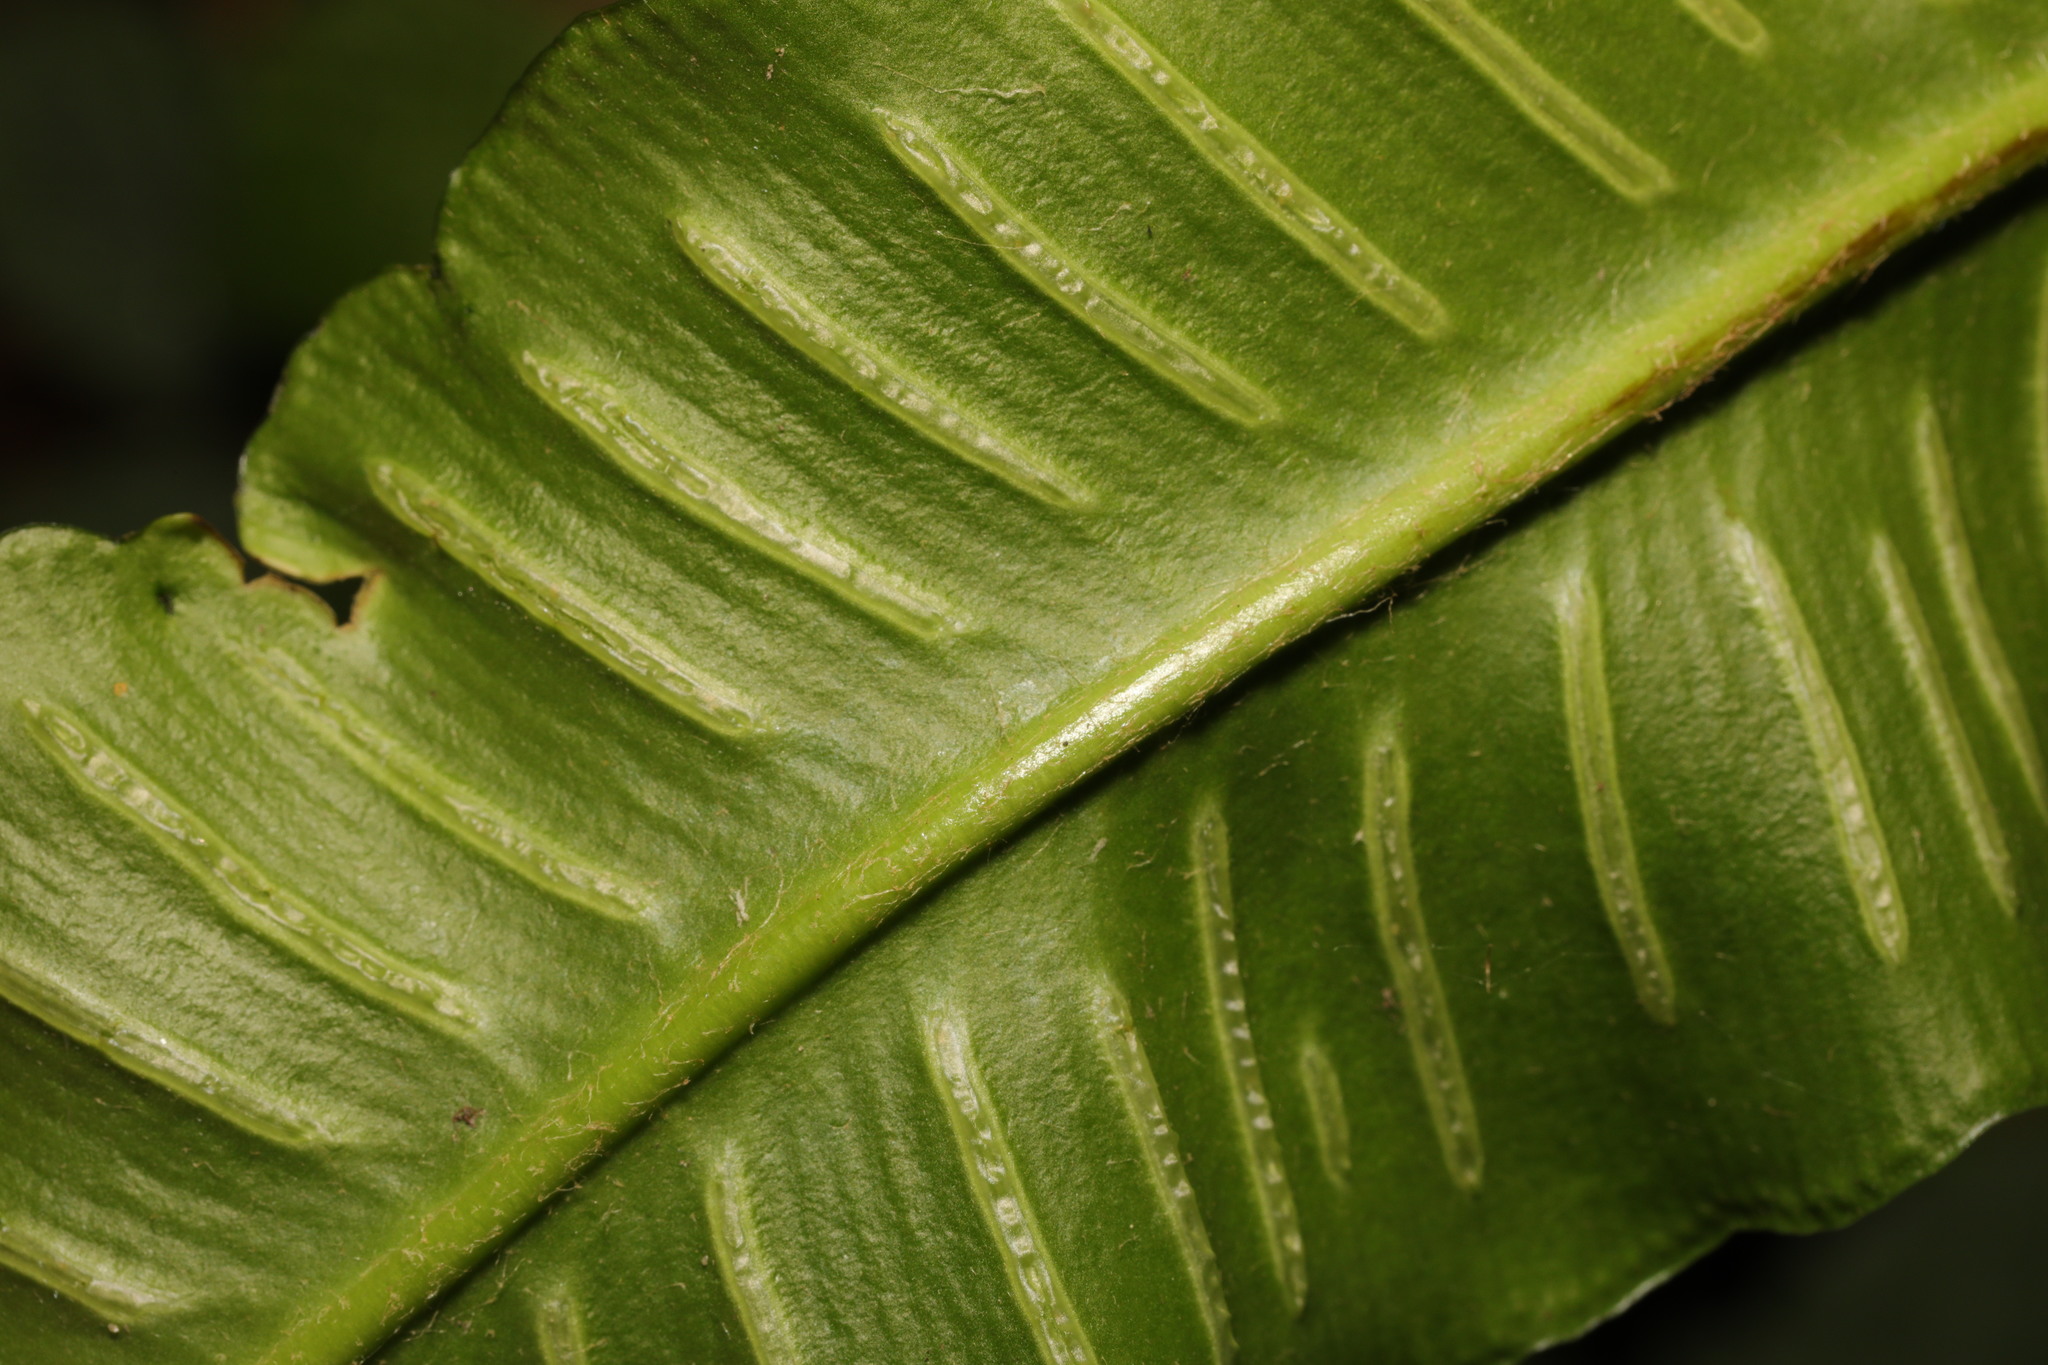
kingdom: Plantae
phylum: Tracheophyta
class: Polypodiopsida
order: Polypodiales
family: Aspleniaceae
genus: Asplenium
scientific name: Asplenium scolopendrium
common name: Hart's-tongue fern
